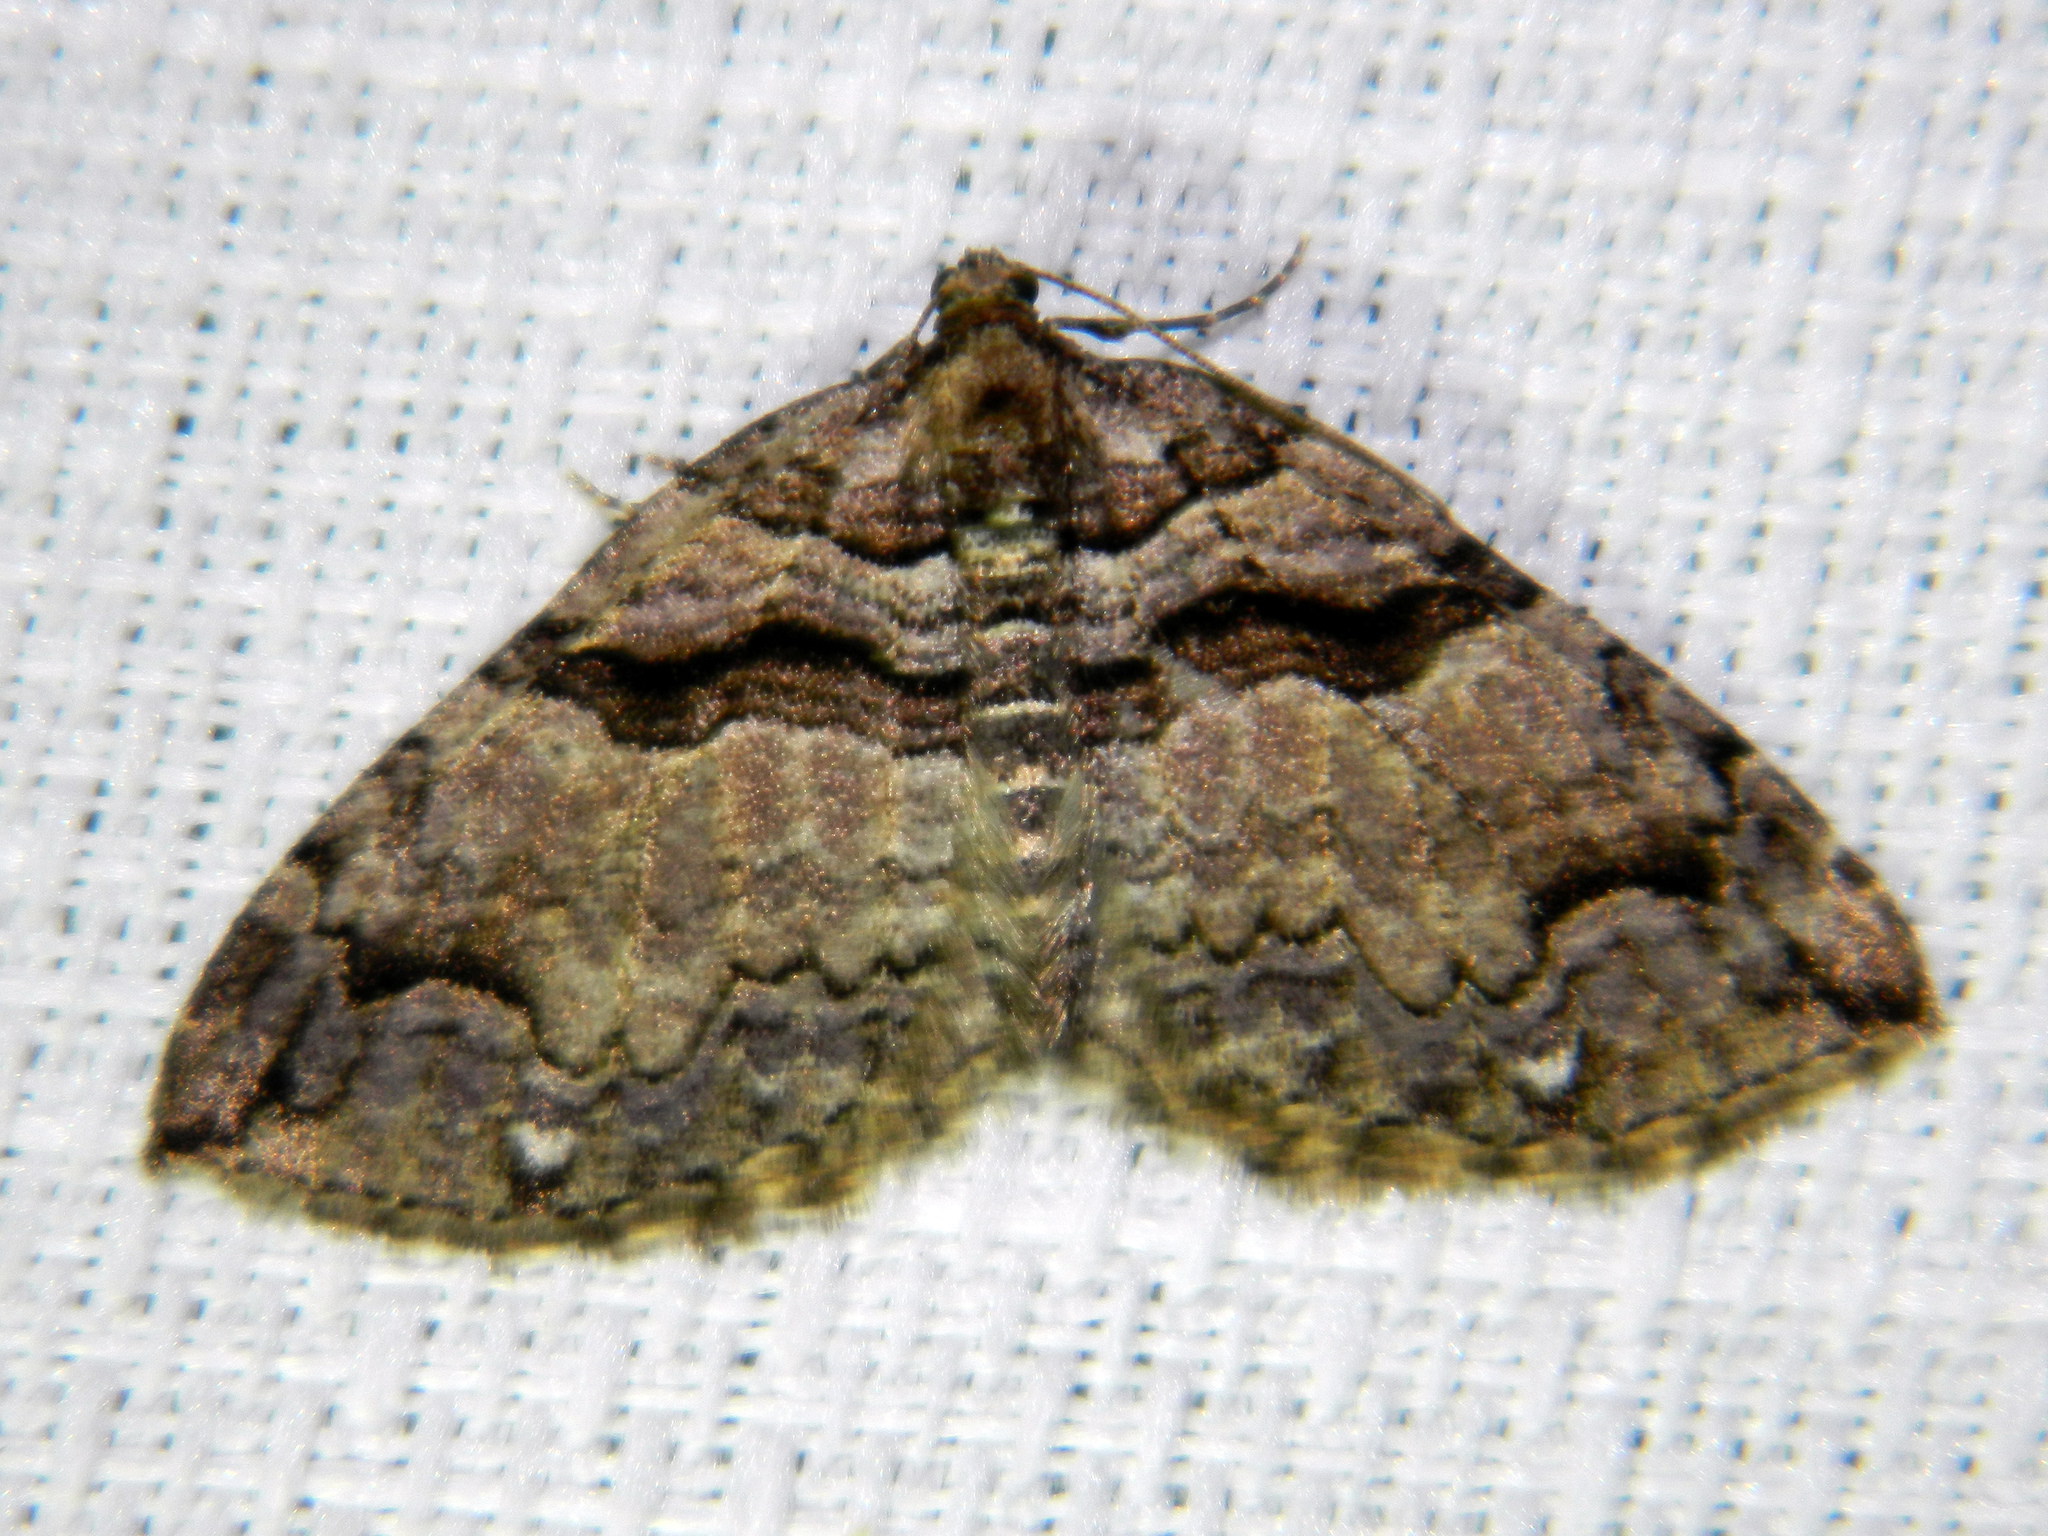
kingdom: Animalia
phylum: Arthropoda
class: Insecta
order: Lepidoptera
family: Geometridae
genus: Anticlea
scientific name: Anticlea vasiliata
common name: Variable carpet
